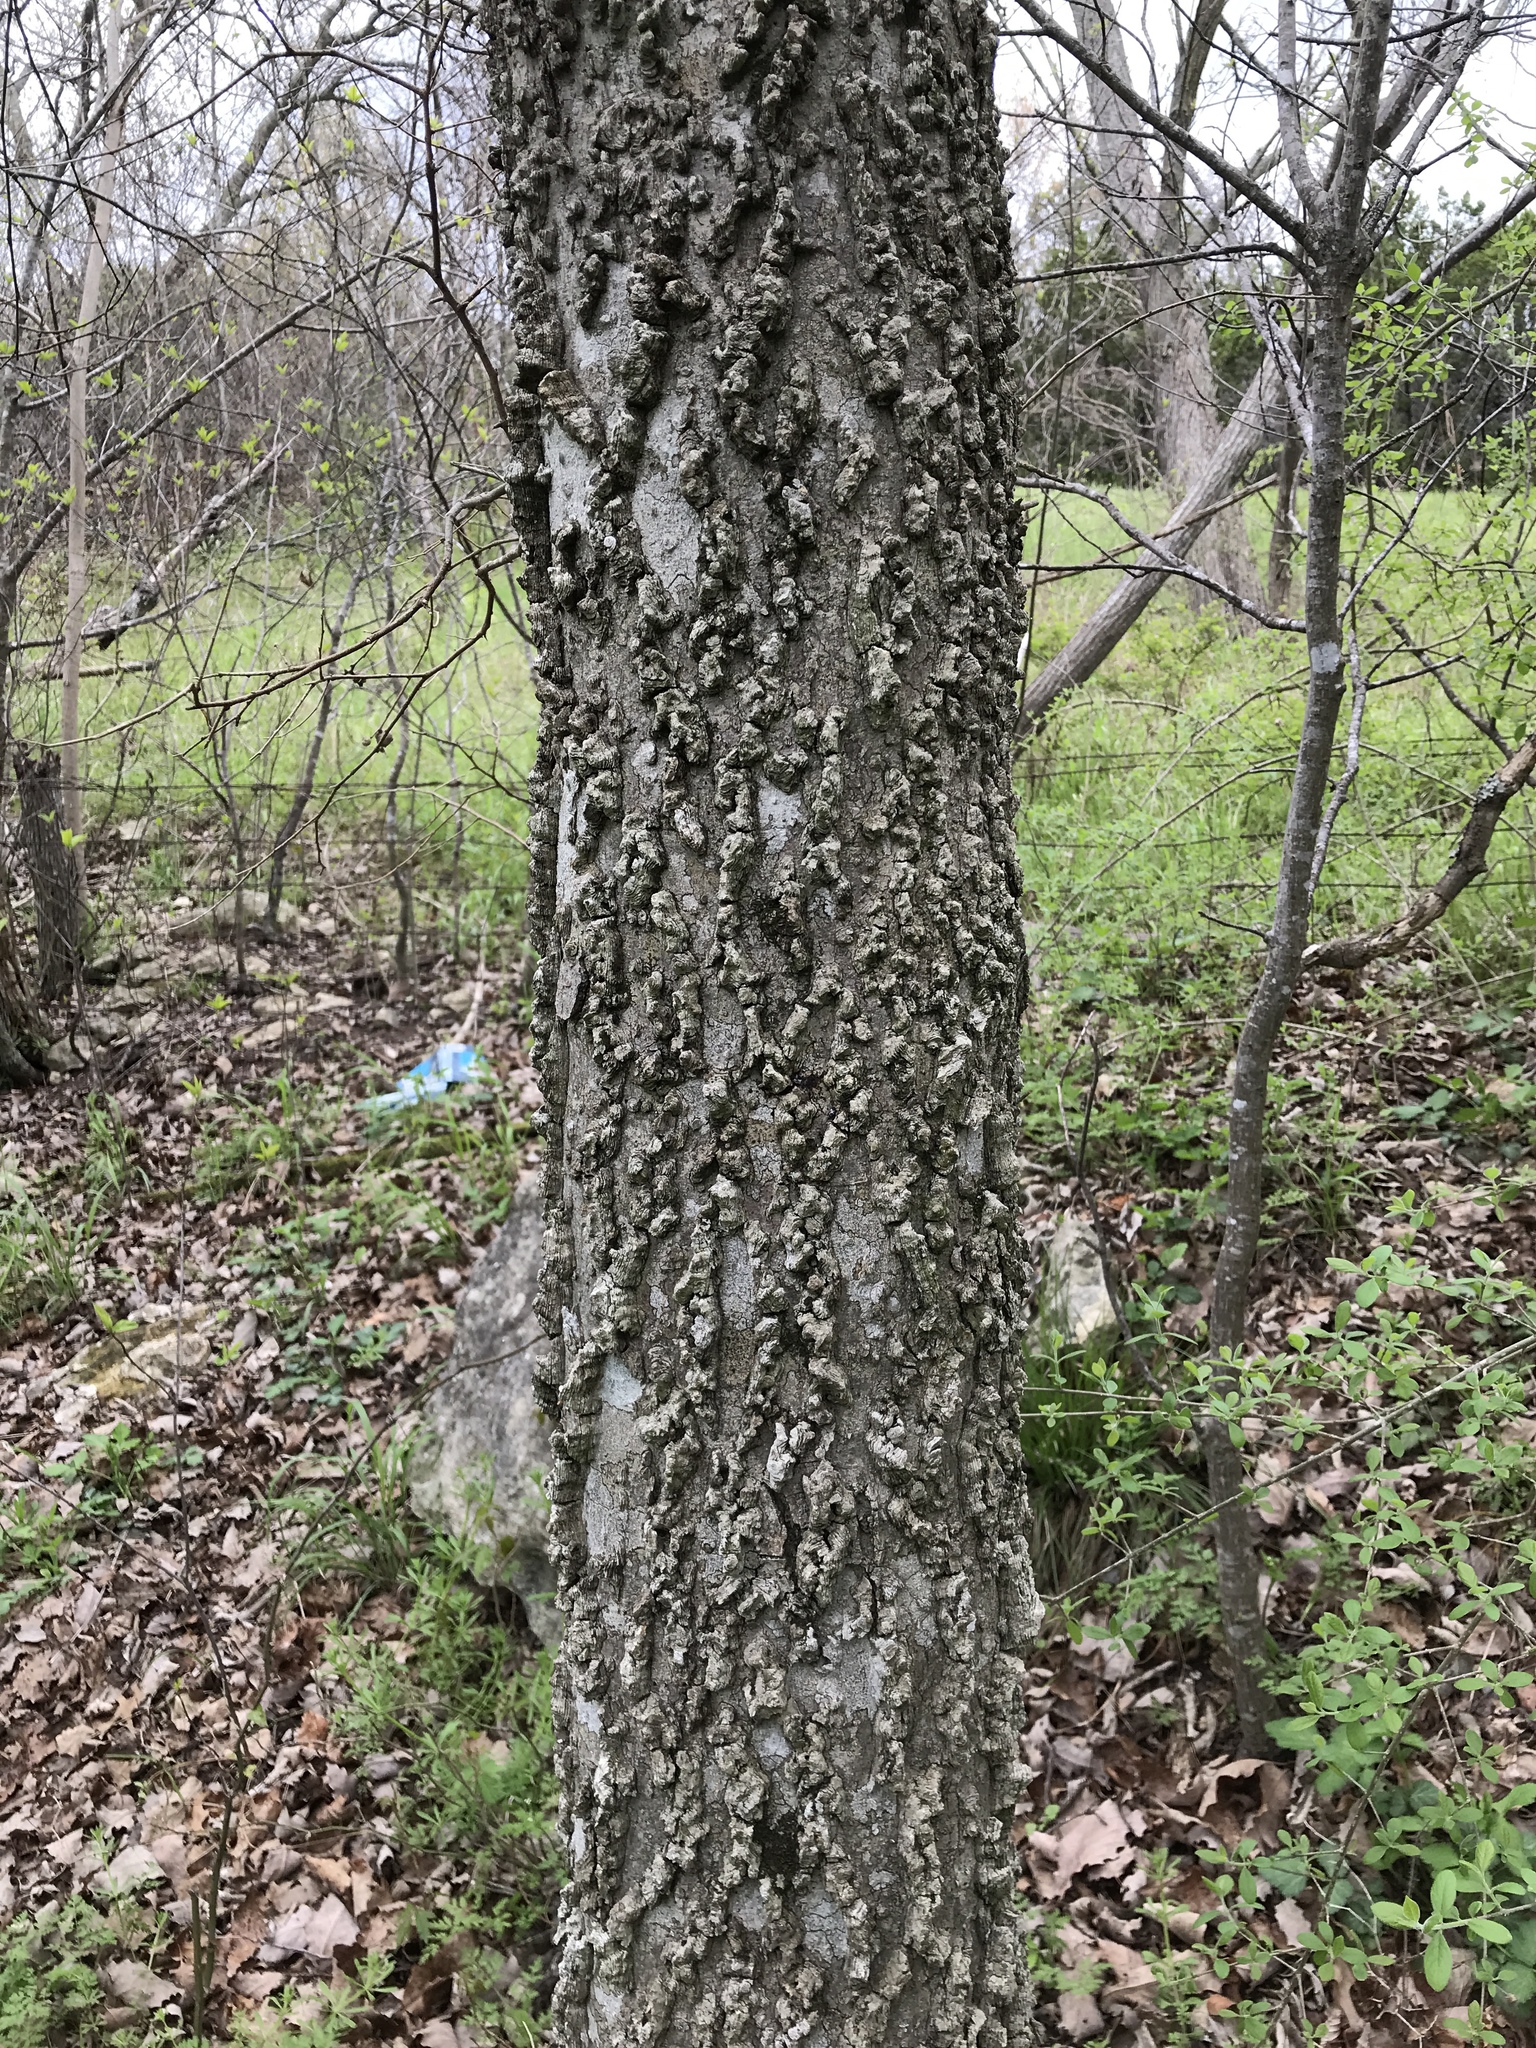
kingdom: Plantae
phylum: Tracheophyta
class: Magnoliopsida
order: Rosales
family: Cannabaceae
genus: Celtis
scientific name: Celtis laevigata
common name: Sugarberry
